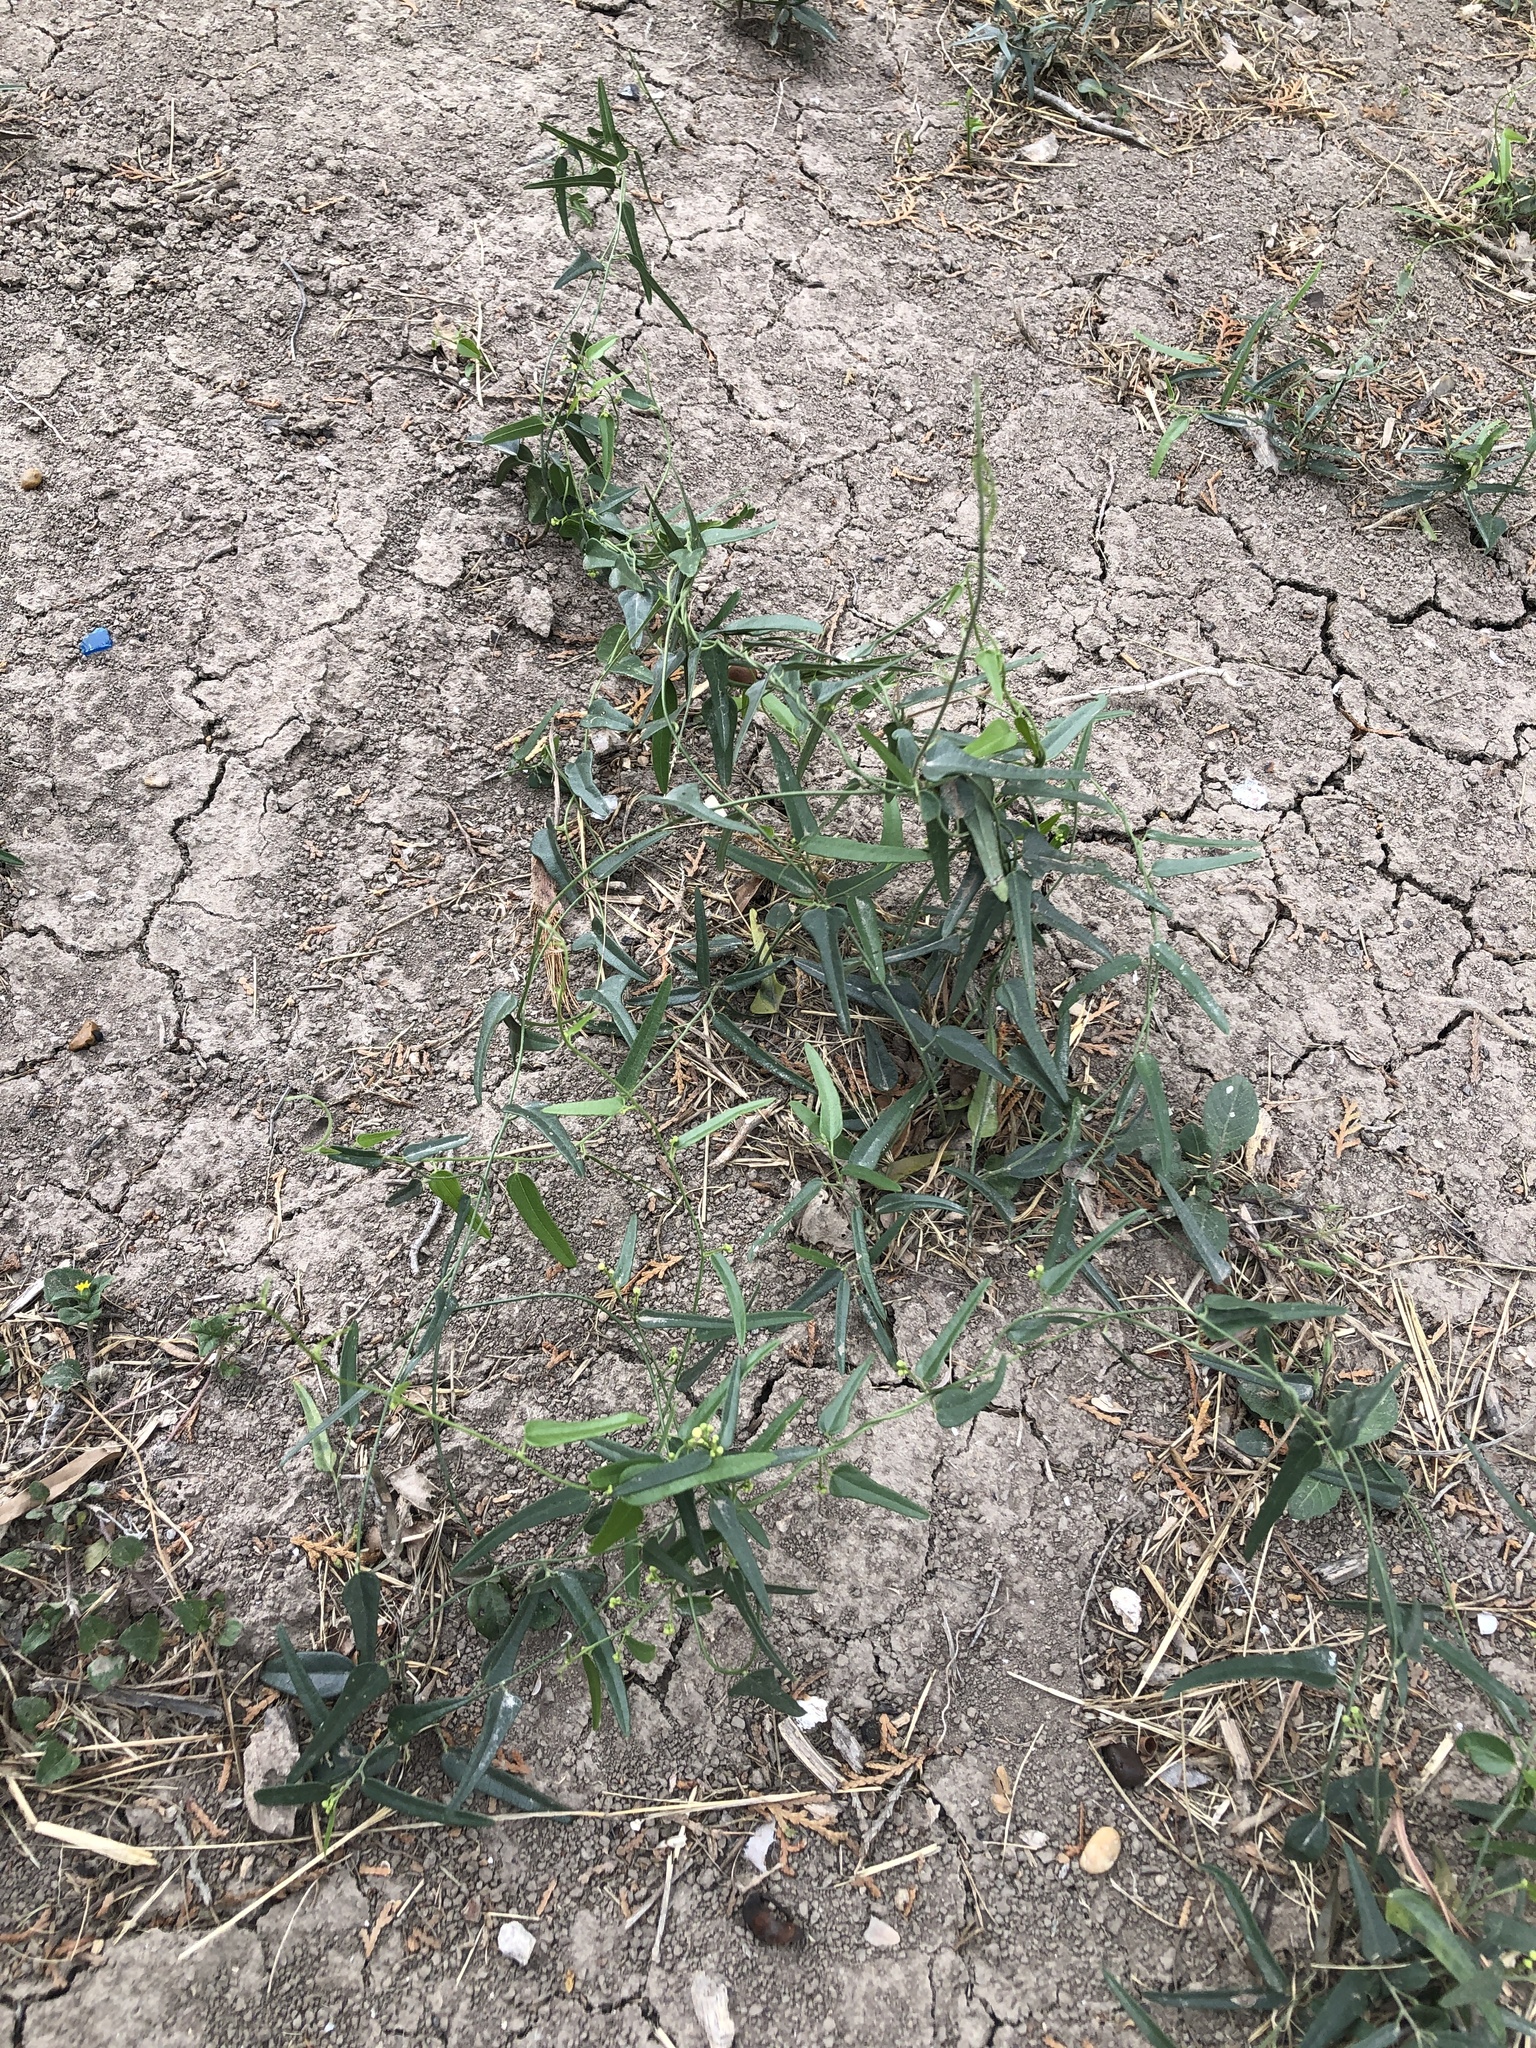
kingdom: Plantae
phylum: Tracheophyta
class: Magnoliopsida
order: Ranunculales
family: Menispermaceae
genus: Cocculus
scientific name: Cocculus diversifolius
